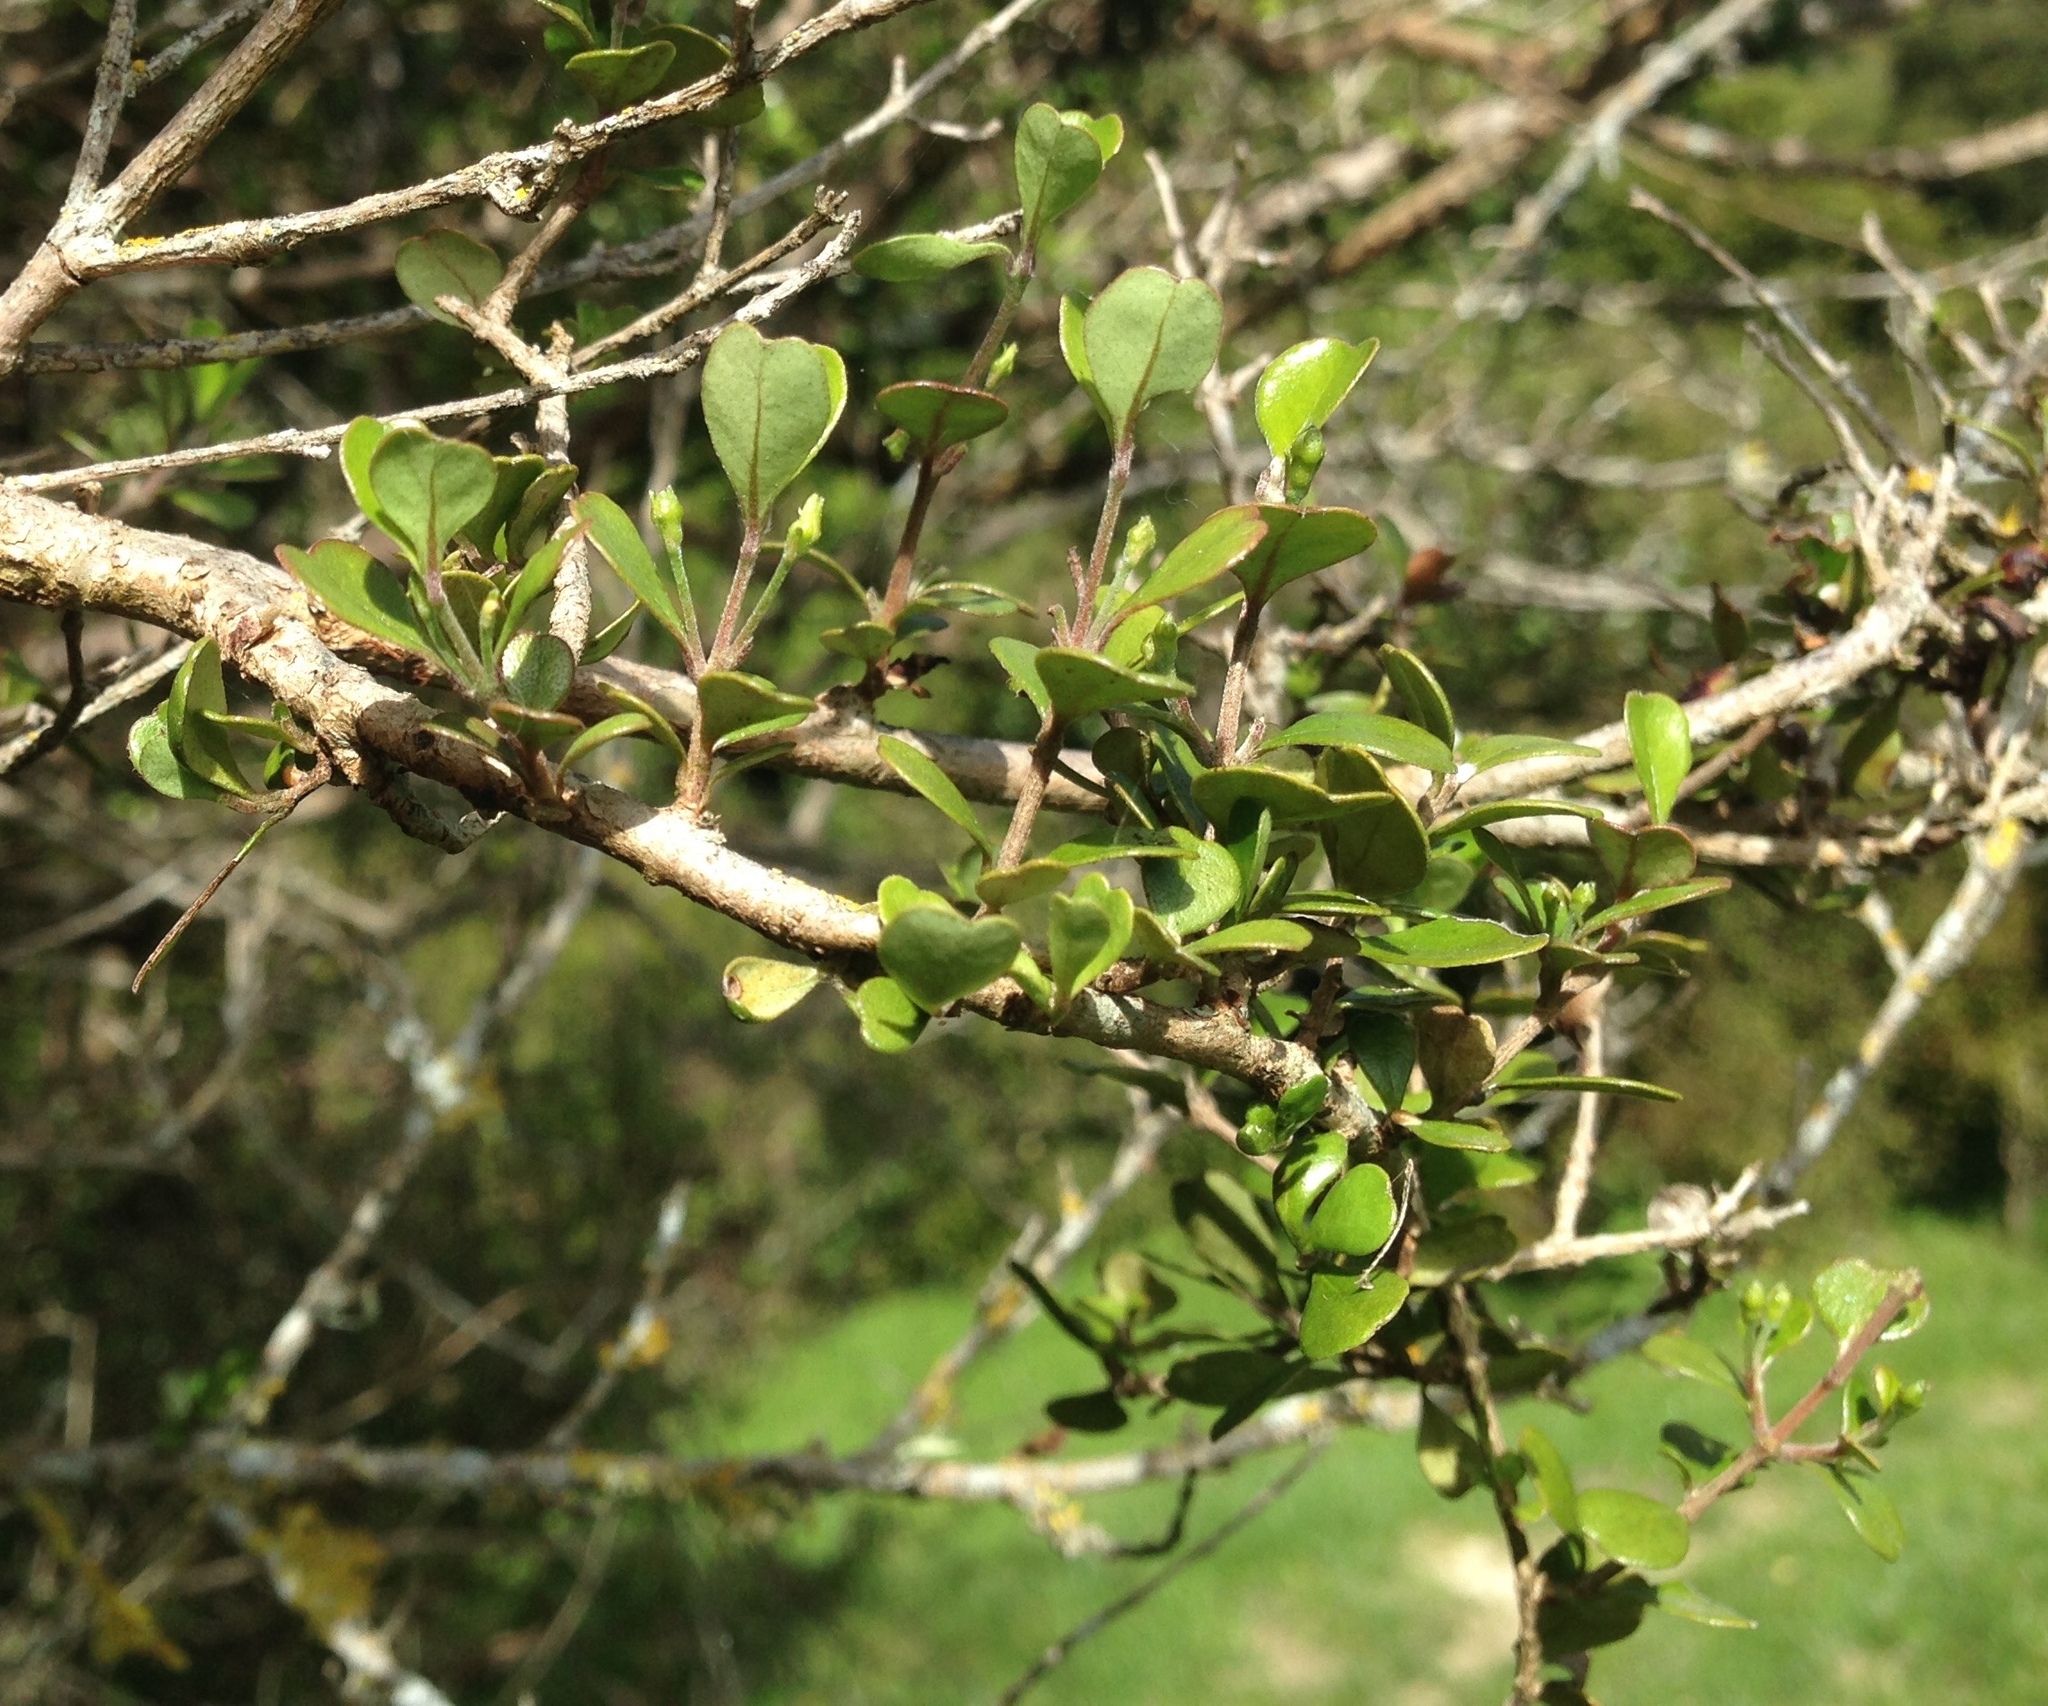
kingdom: Plantae
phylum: Tracheophyta
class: Magnoliopsida
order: Myrtales
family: Myrtaceae
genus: Lophomyrtus
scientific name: Lophomyrtus obcordata
